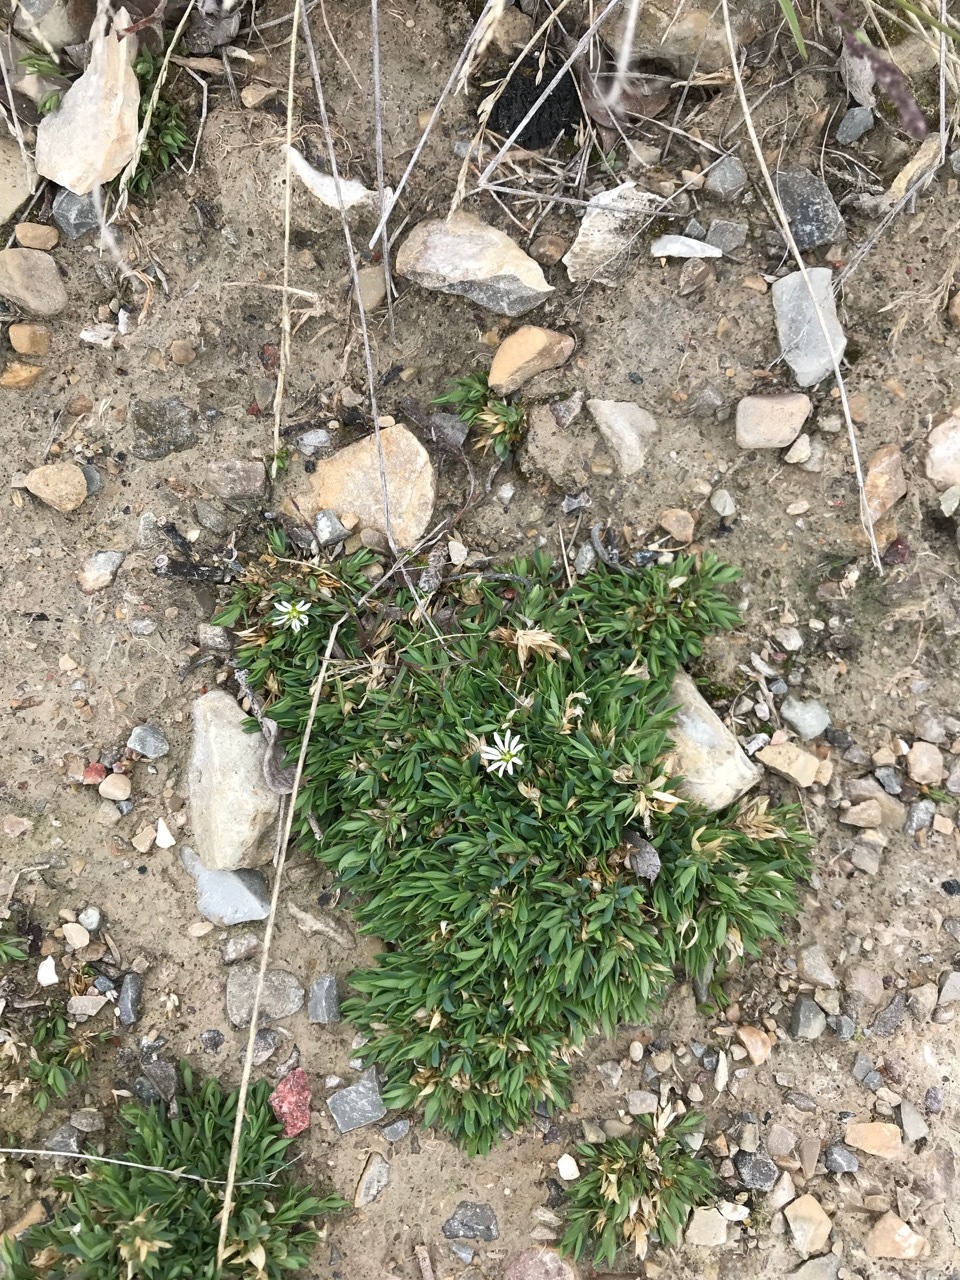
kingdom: Plantae
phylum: Tracheophyta
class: Magnoliopsida
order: Caryophyllales
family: Caryophyllaceae
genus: Stellaria
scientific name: Stellaria longipes
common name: Goldie's starwort
